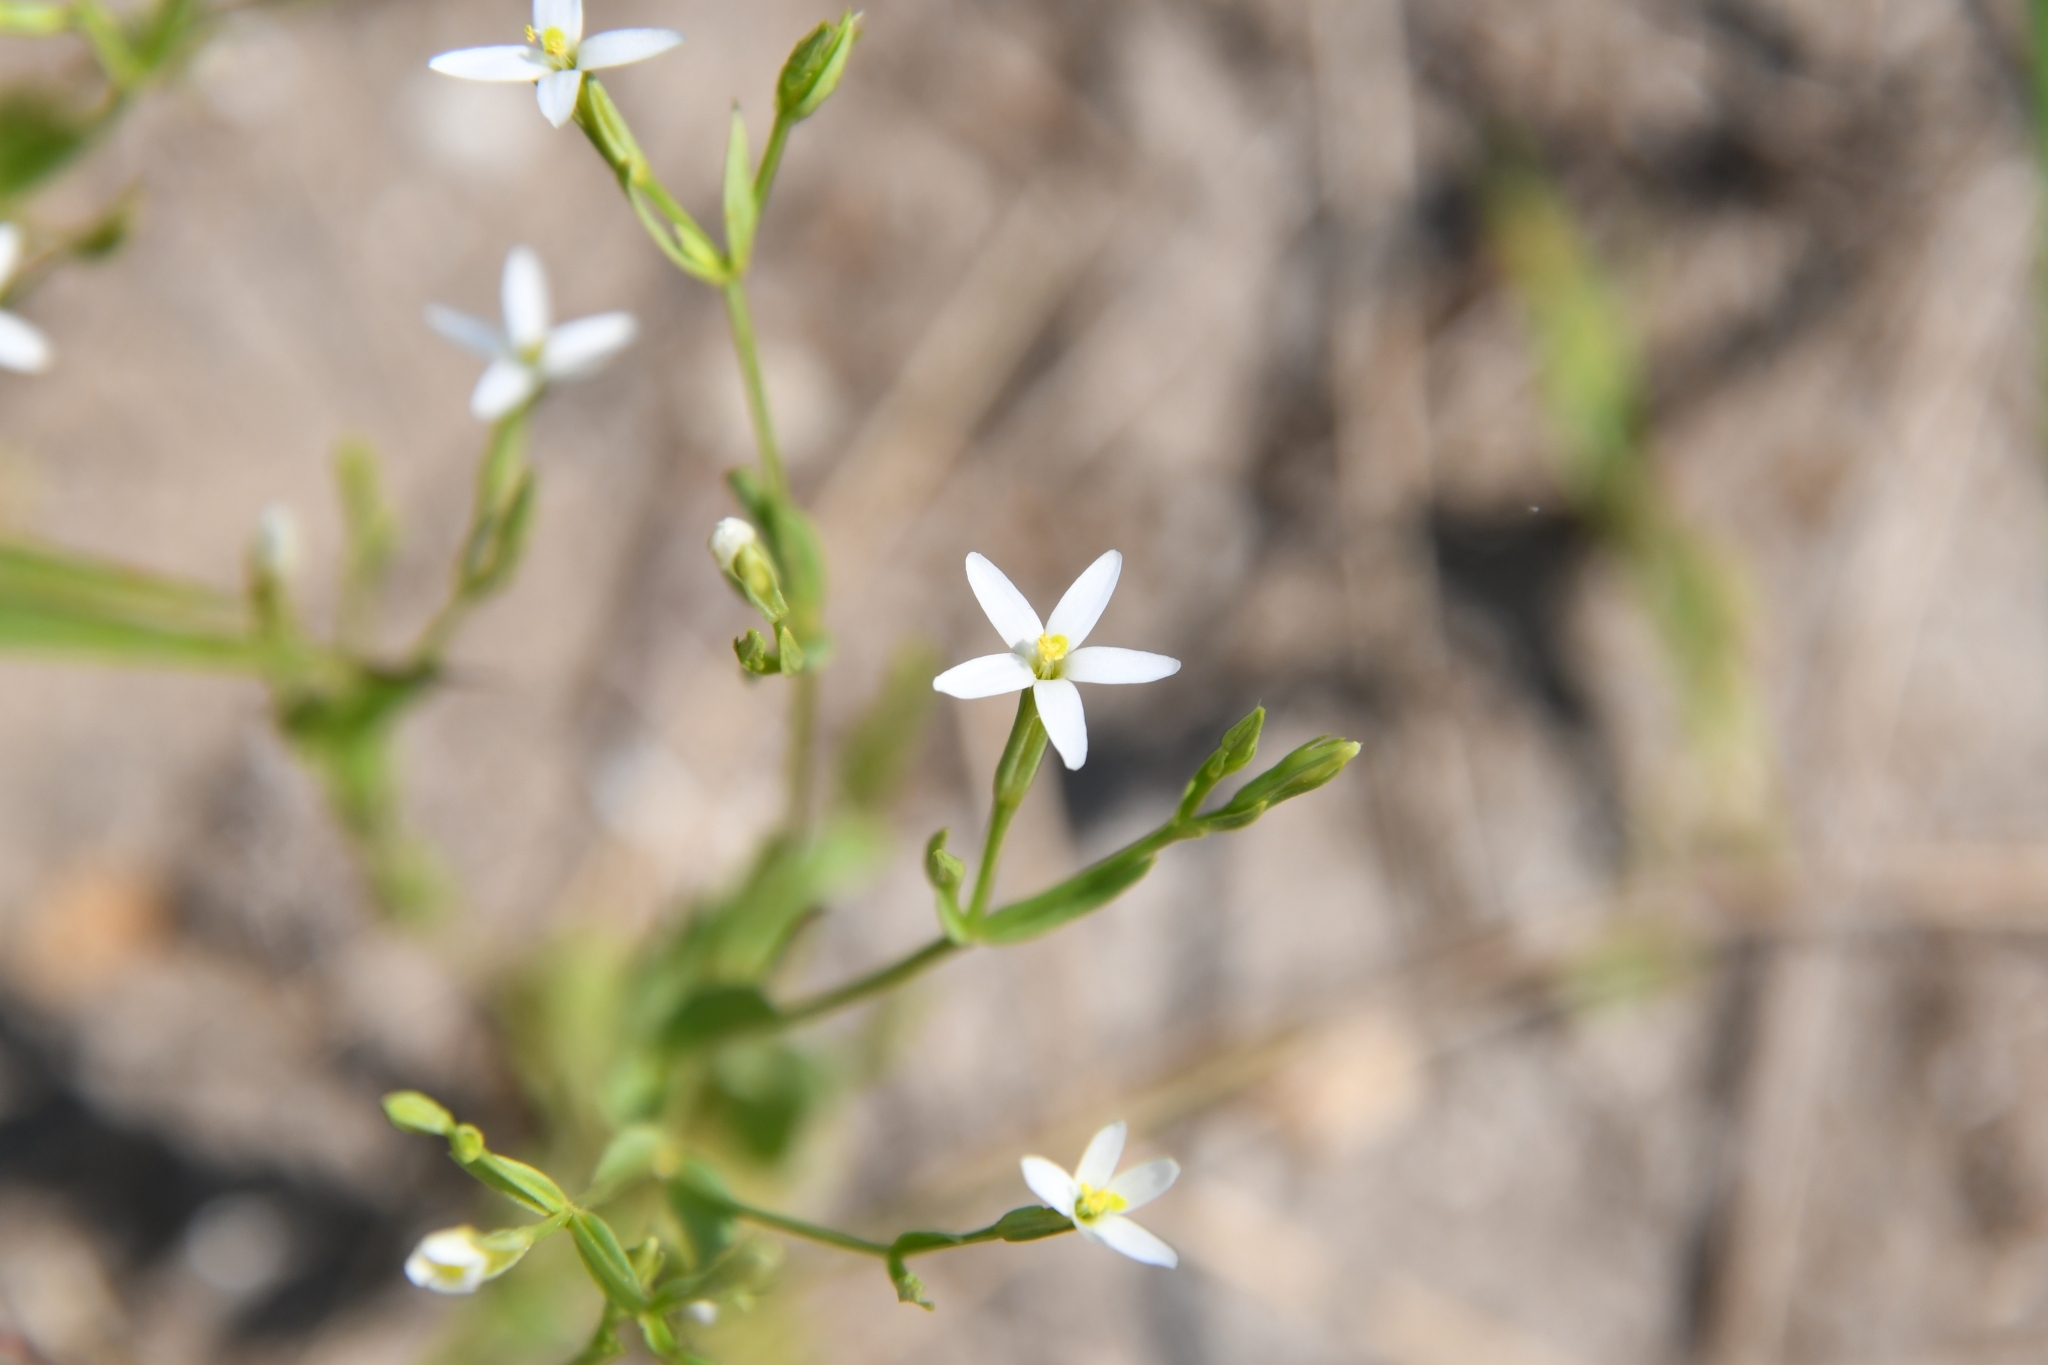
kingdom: Plantae
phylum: Tracheophyta
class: Magnoliopsida
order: Gentianales
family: Gentianaceae
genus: Centaurium
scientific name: Centaurium pulchellum
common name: Lesser centaury
